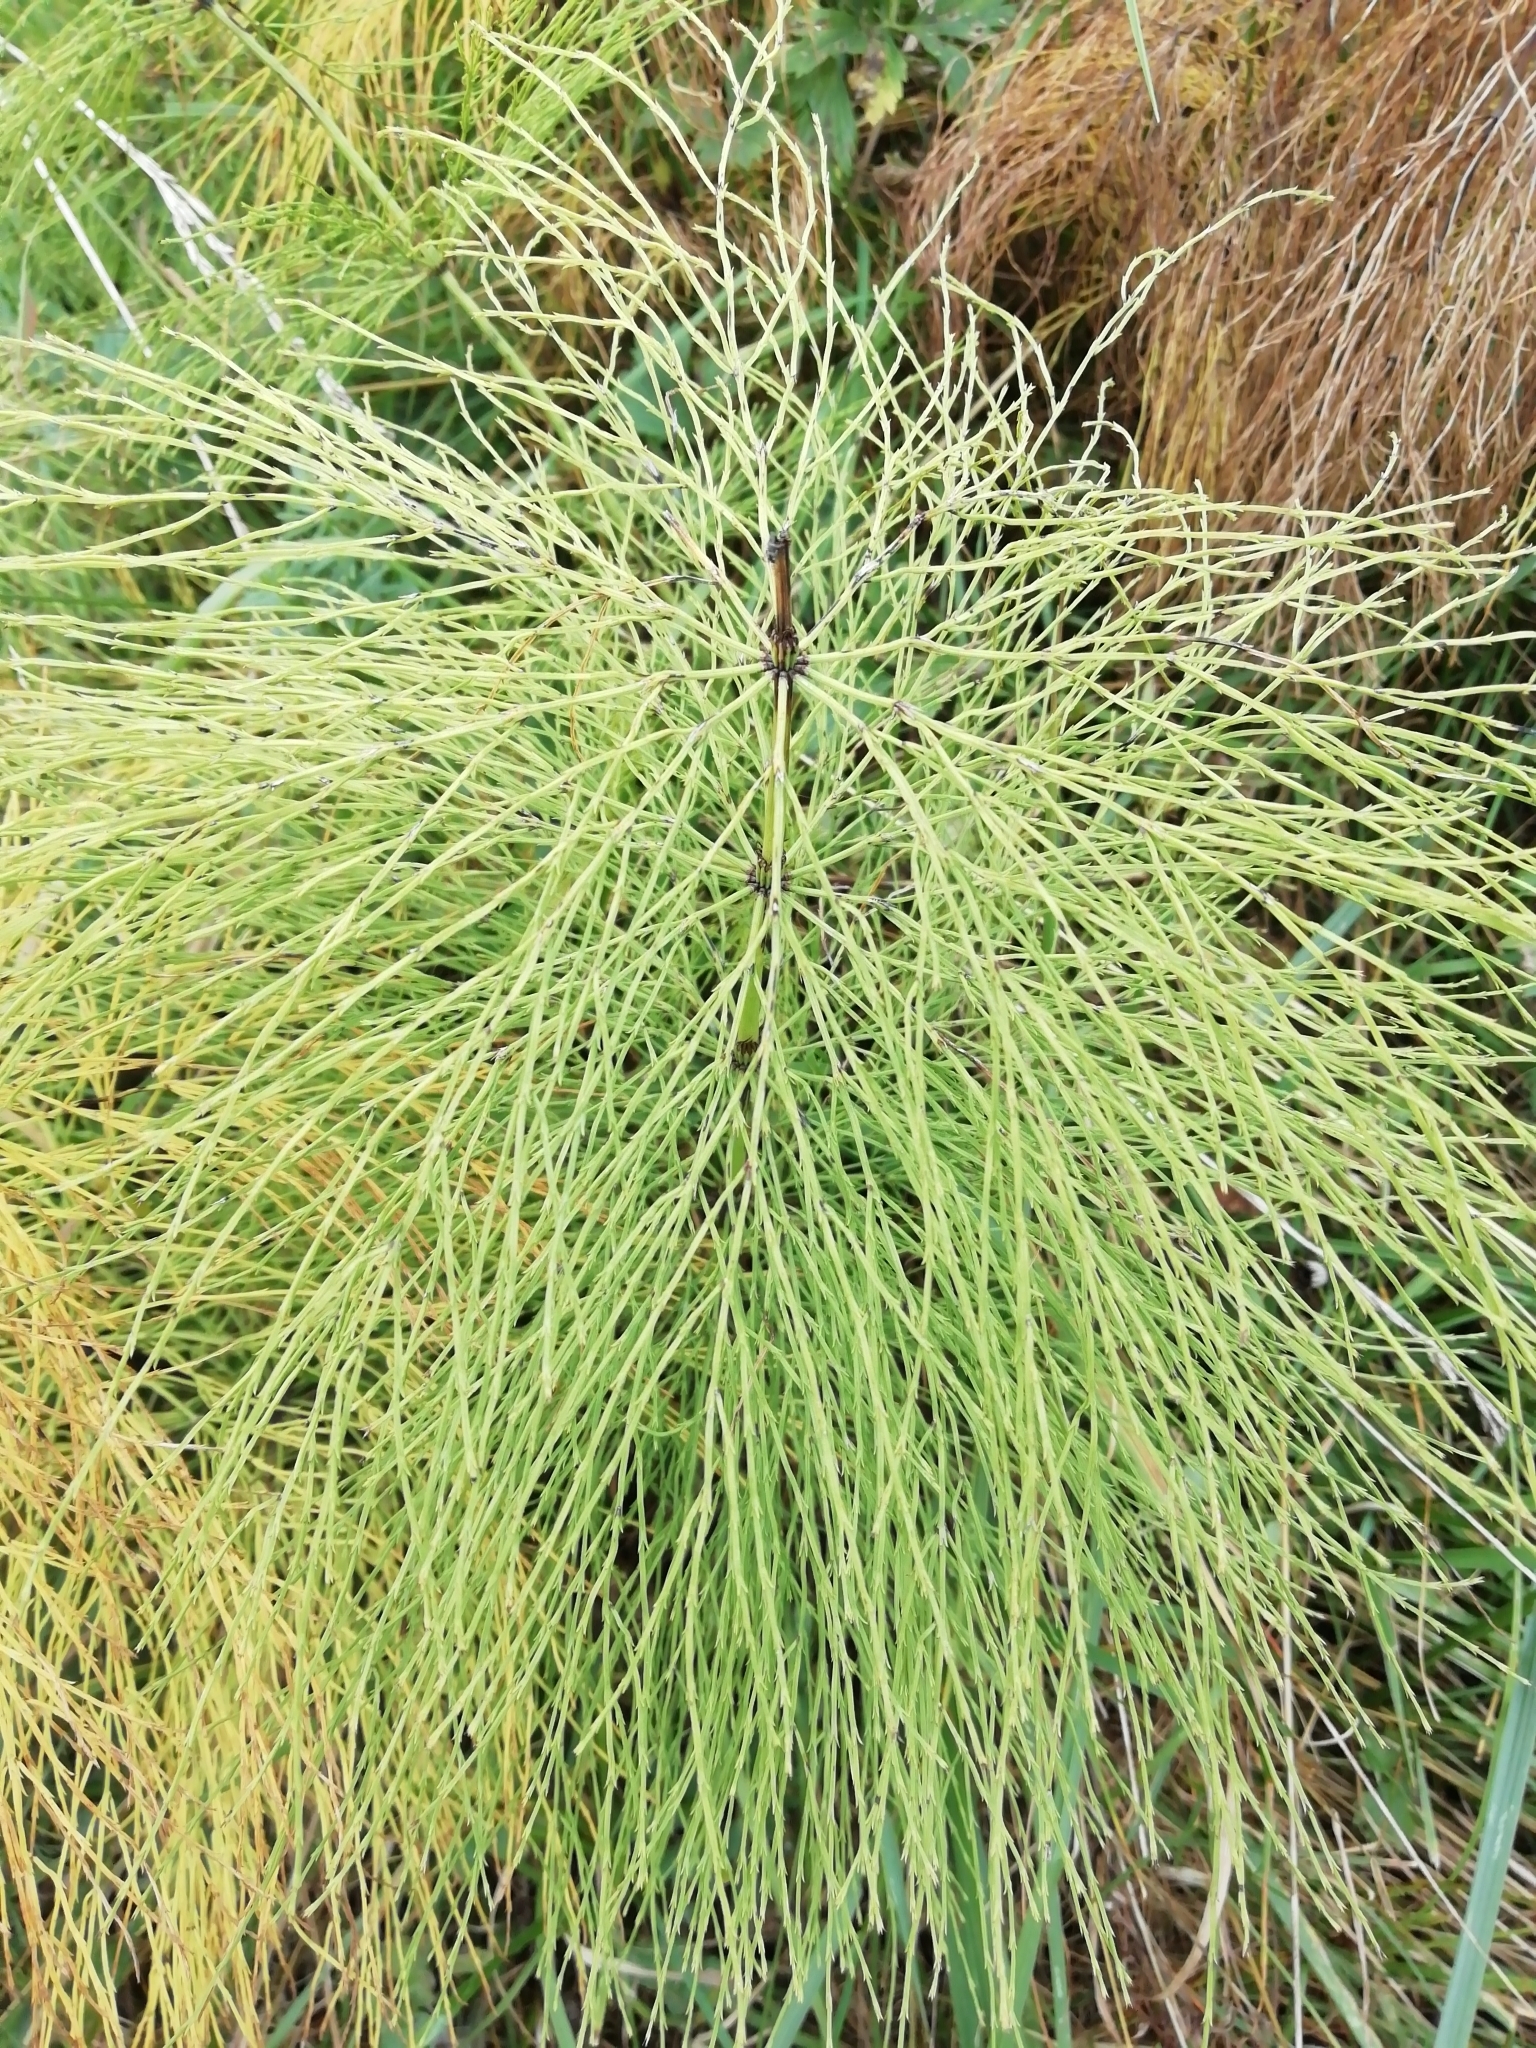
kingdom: Plantae
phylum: Tracheophyta
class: Polypodiopsida
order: Equisetales
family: Equisetaceae
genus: Equisetum
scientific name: Equisetum sylvaticum
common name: Wood horsetail
